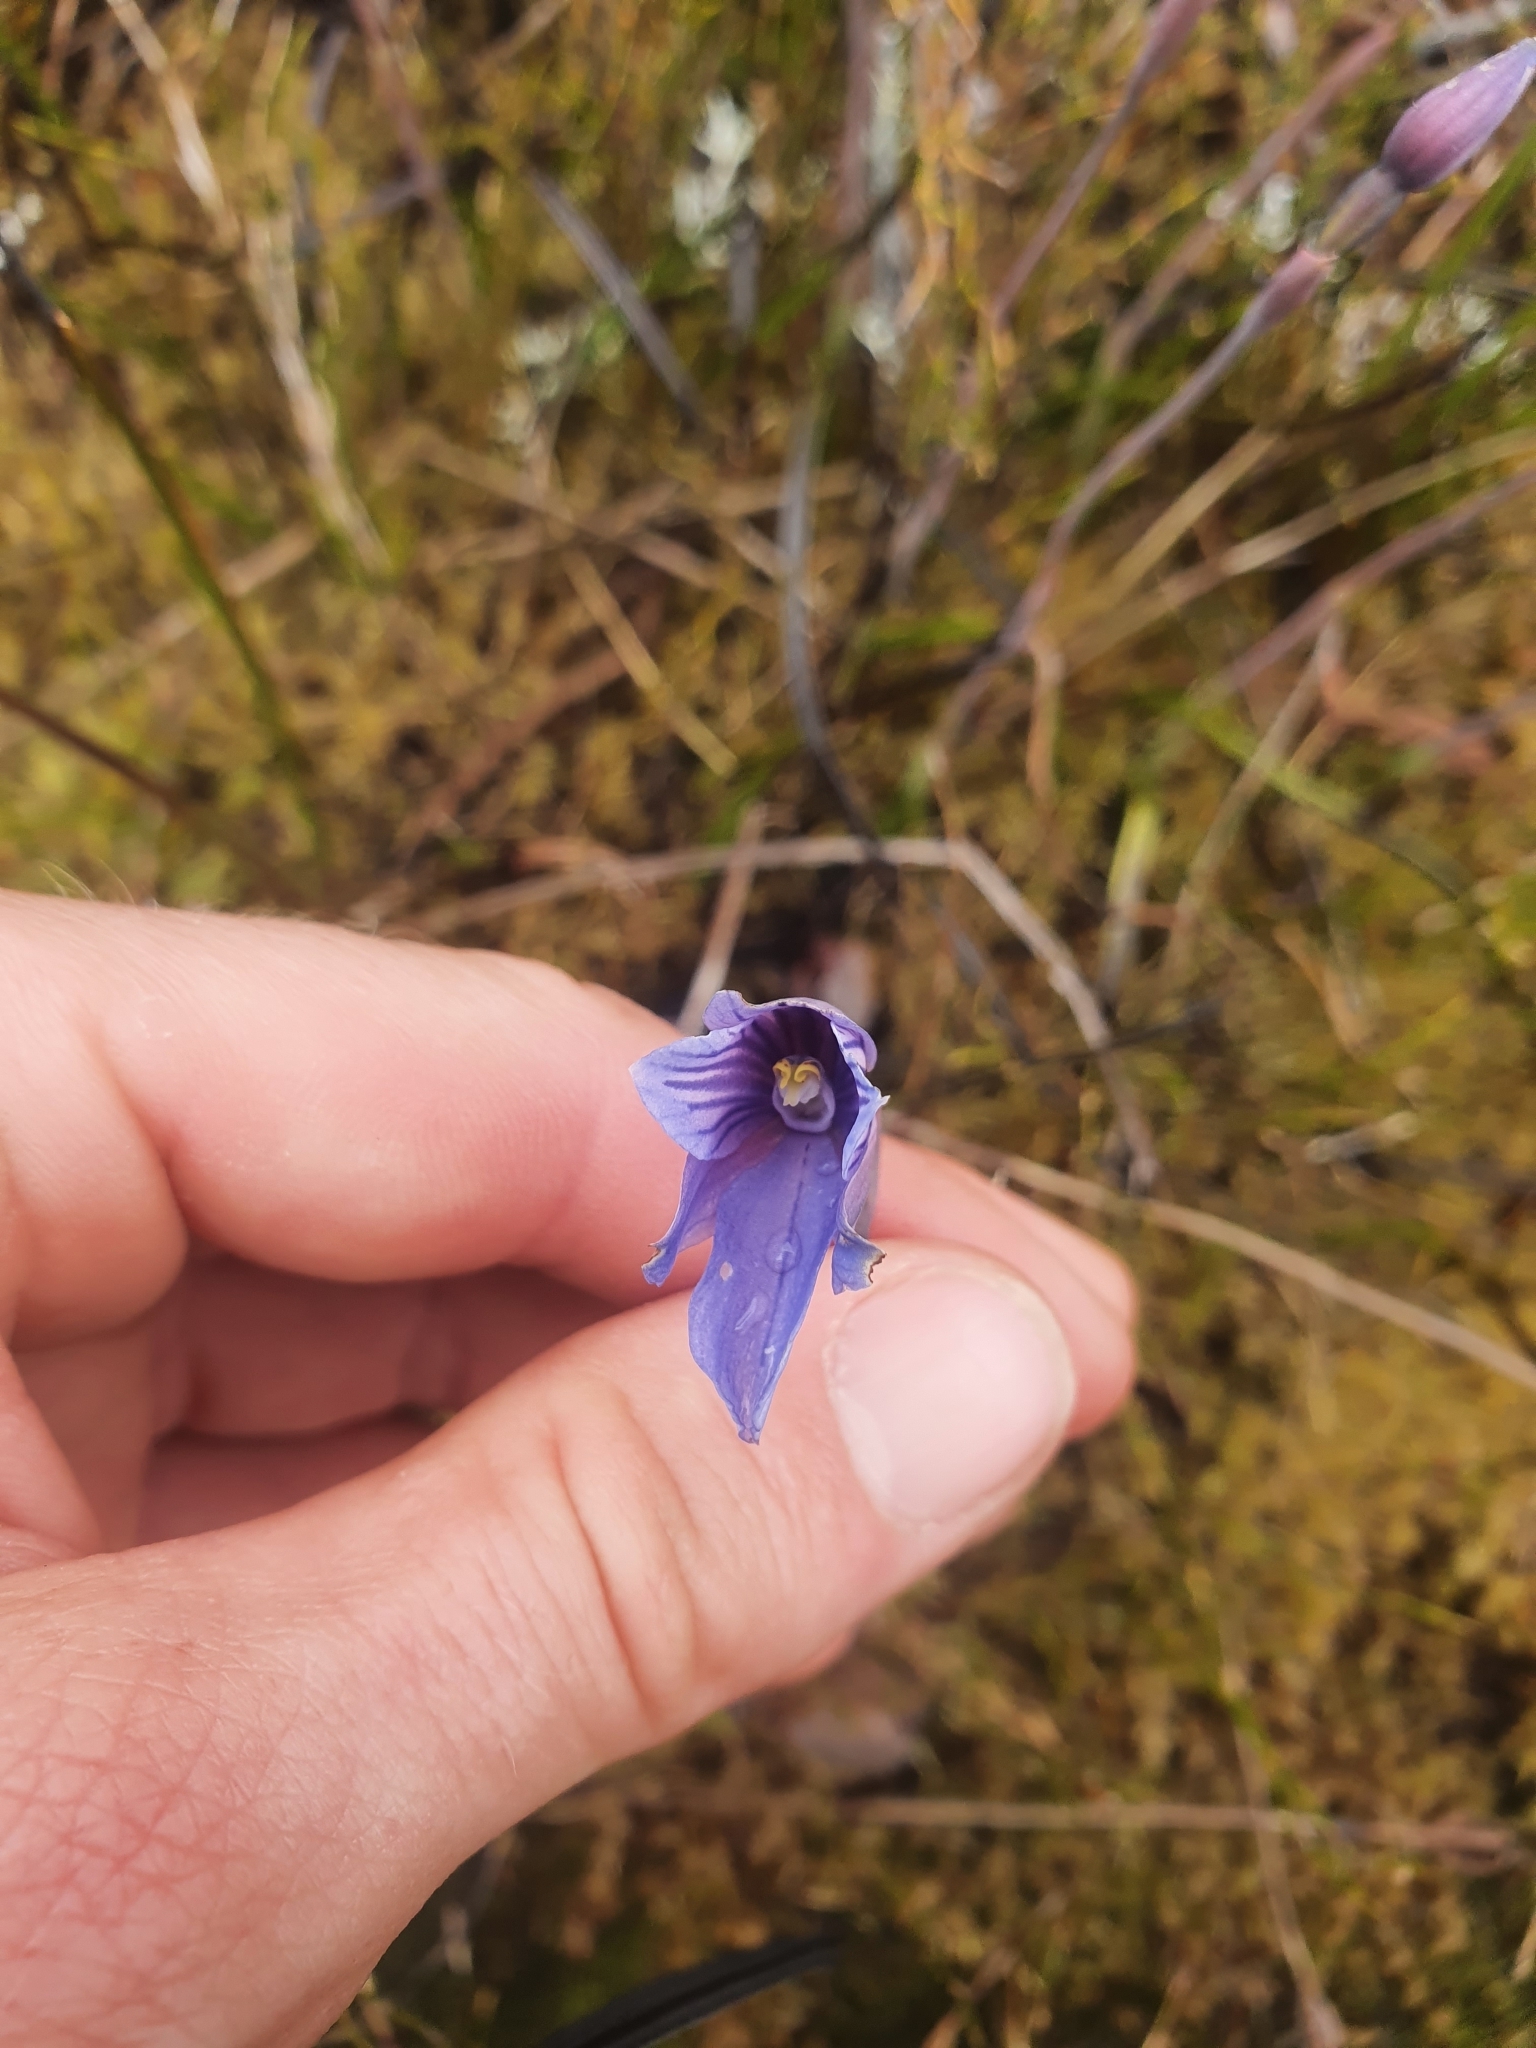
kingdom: Plantae
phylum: Tracheophyta
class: Liliopsida
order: Asparagales
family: Orchidaceae
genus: Thelymitra
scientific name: Thelymitra cyanea
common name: Blue sun-orchid
